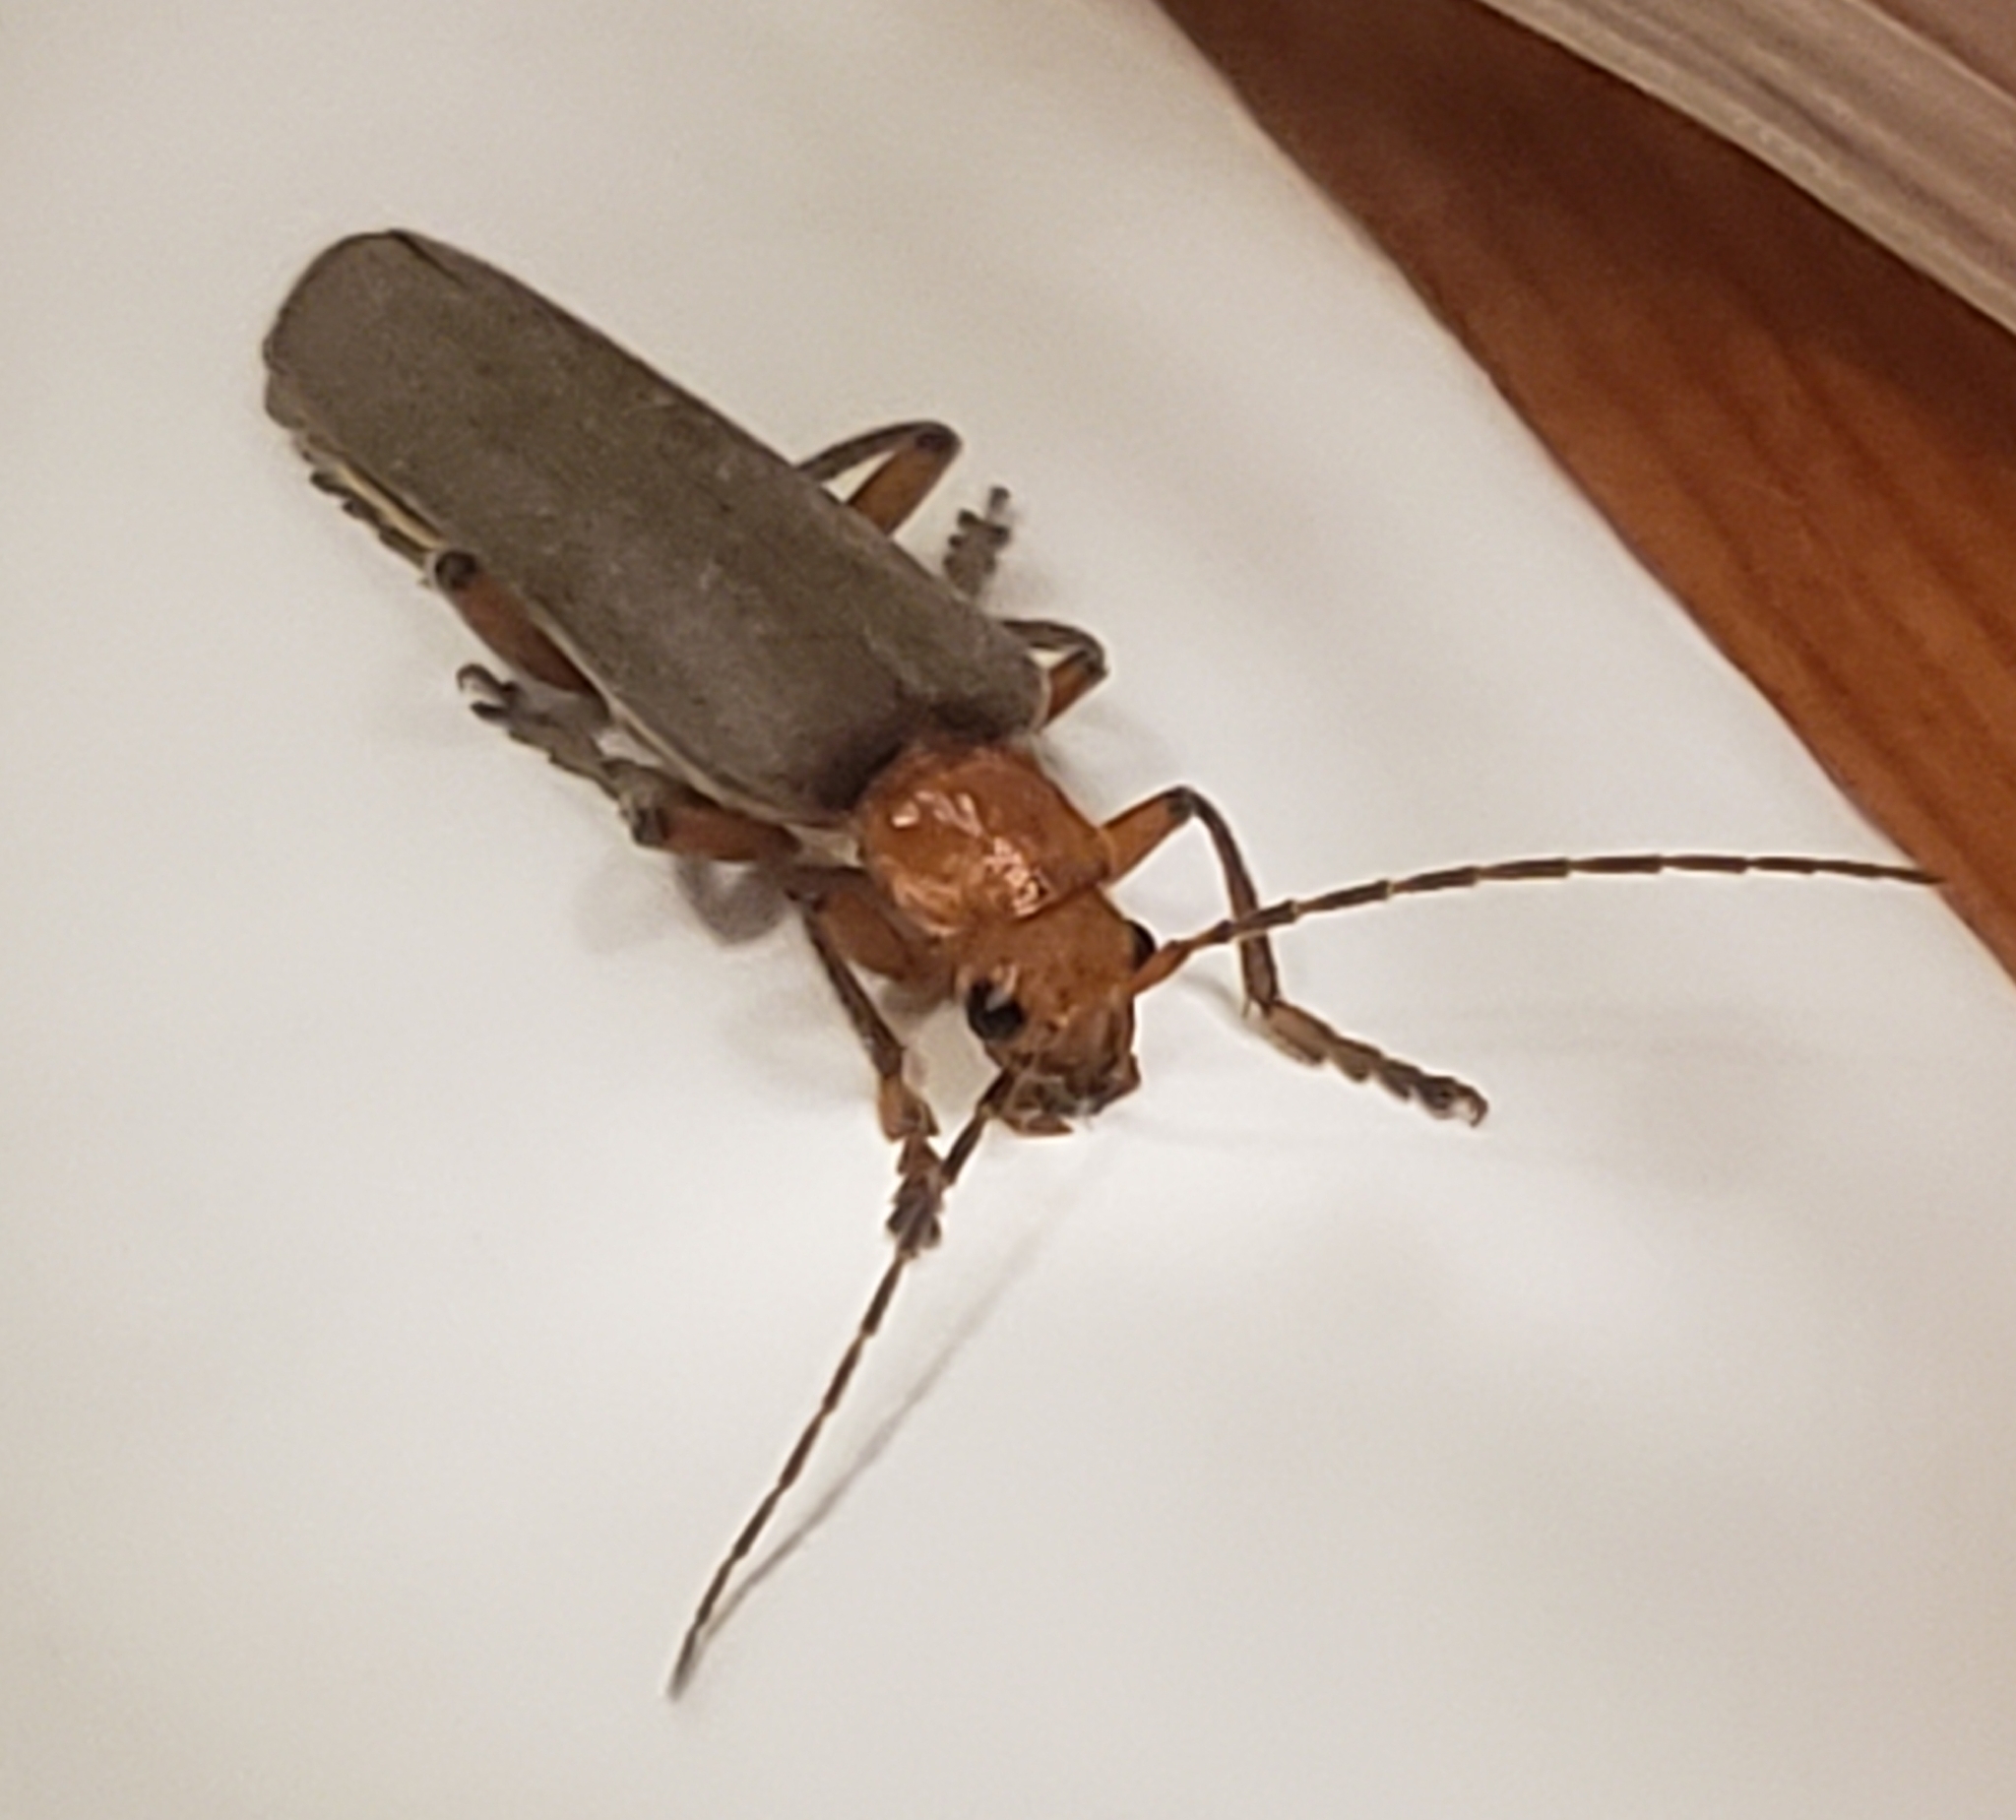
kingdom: Animalia
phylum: Arthropoda
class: Insecta
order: Coleoptera
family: Cantharidae
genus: Pacificanthia
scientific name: Pacificanthia consors
